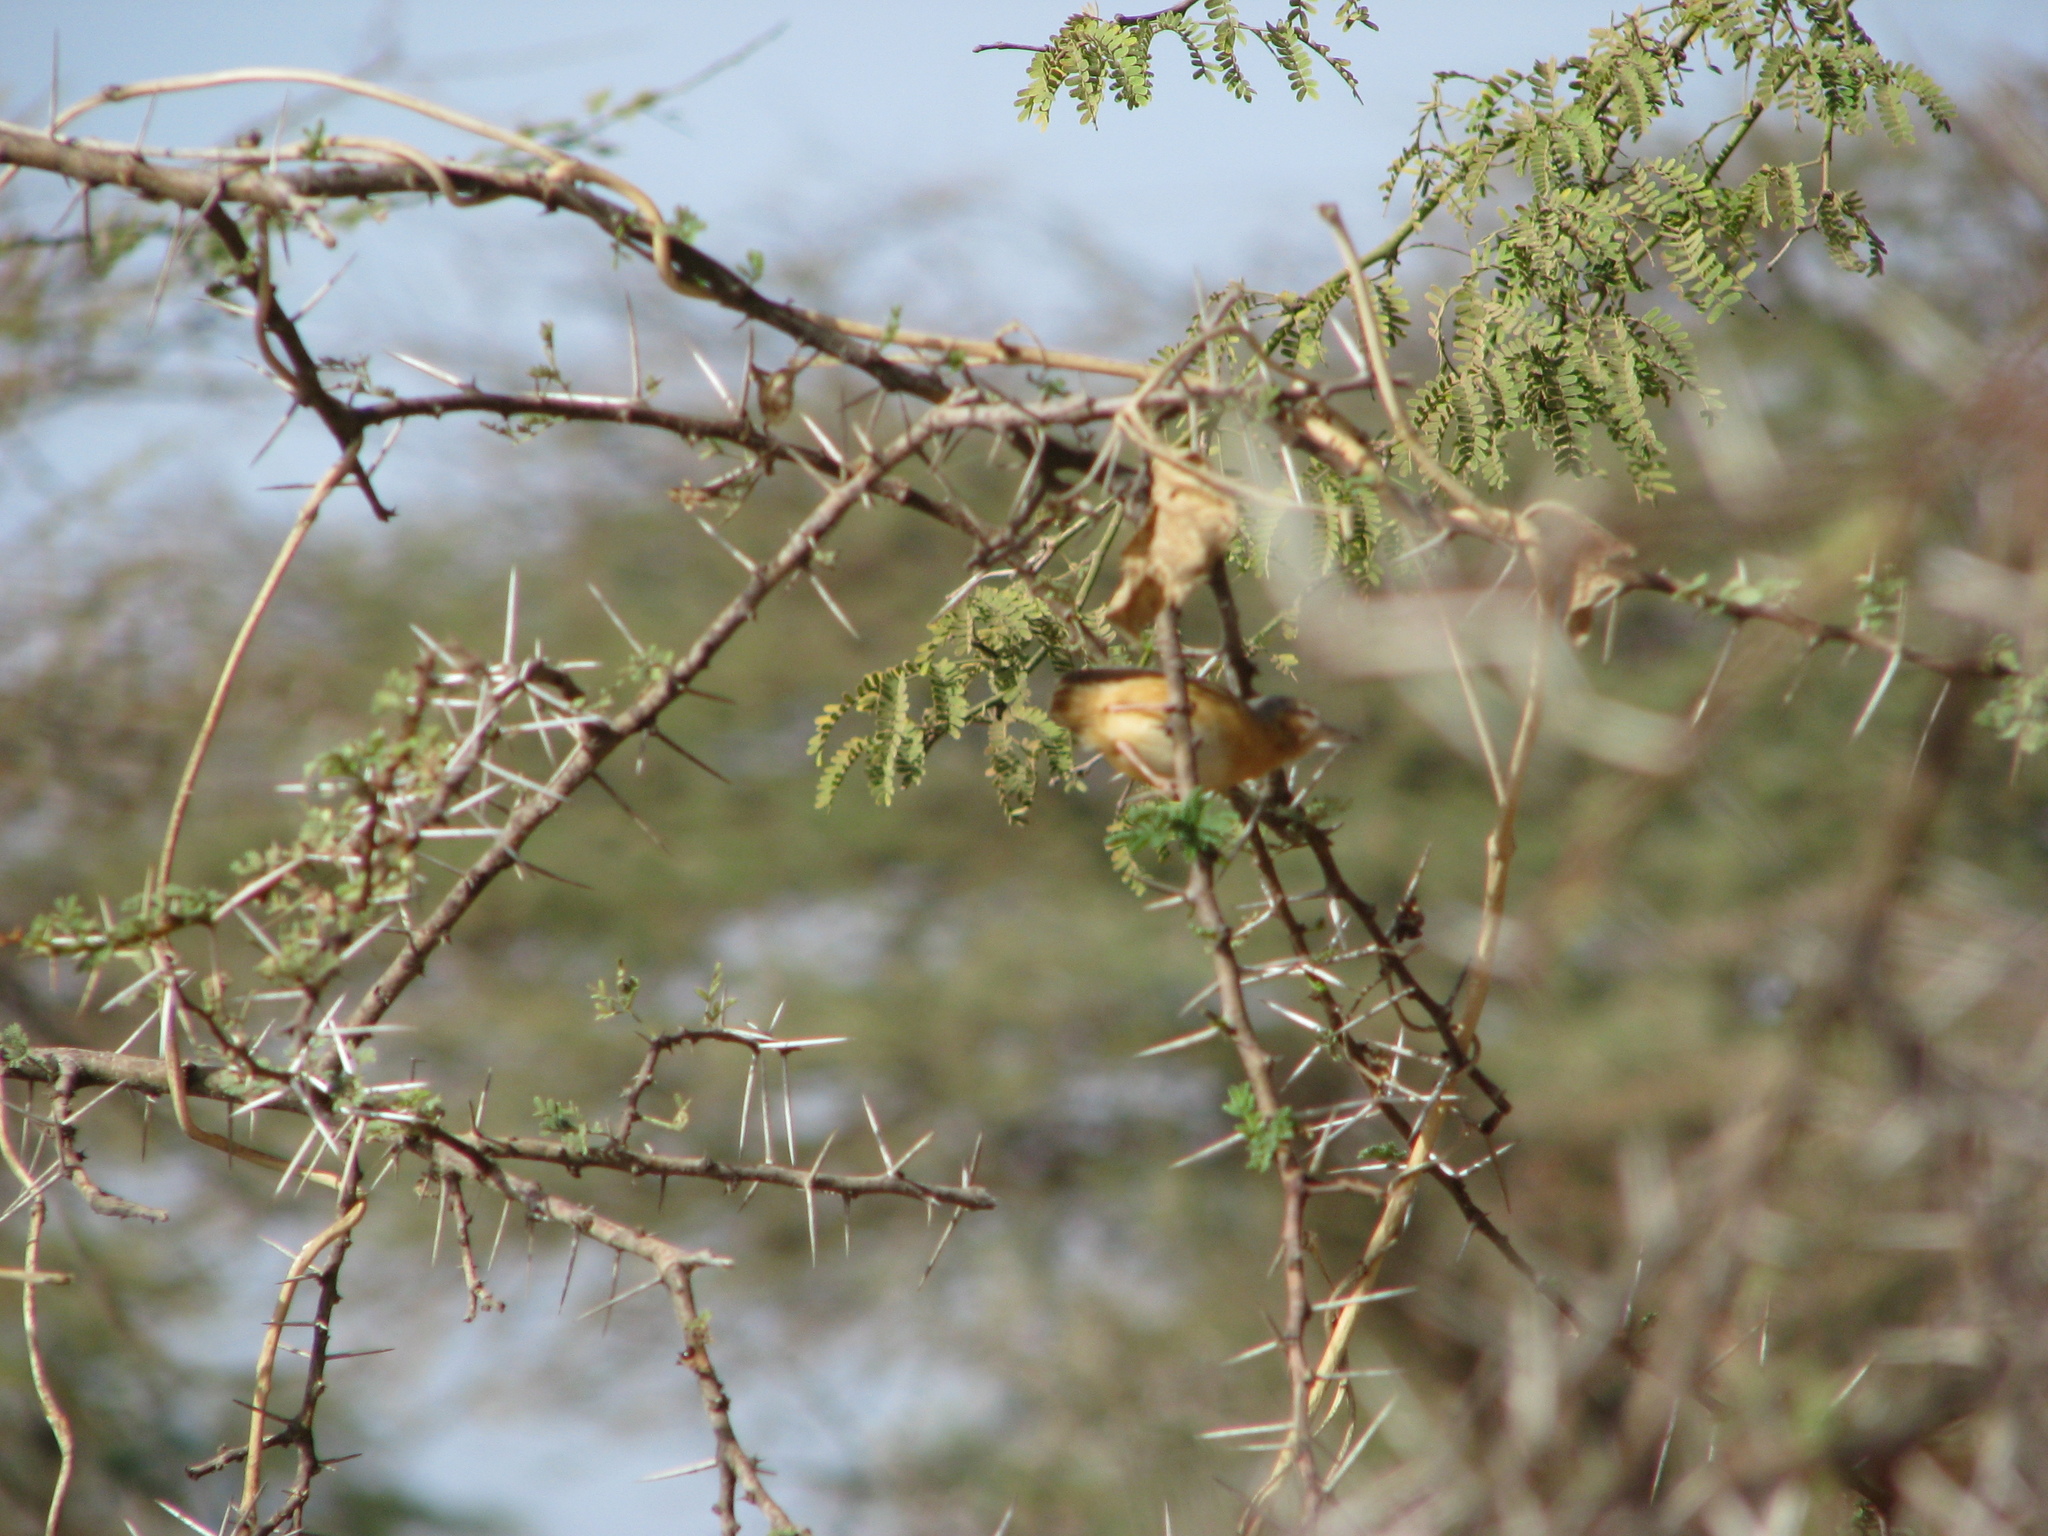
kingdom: Animalia
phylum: Chordata
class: Aves
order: Passeriformes
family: Macrosphenidae
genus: Sylvietta
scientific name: Sylvietta brachyura
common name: Northern crombec
